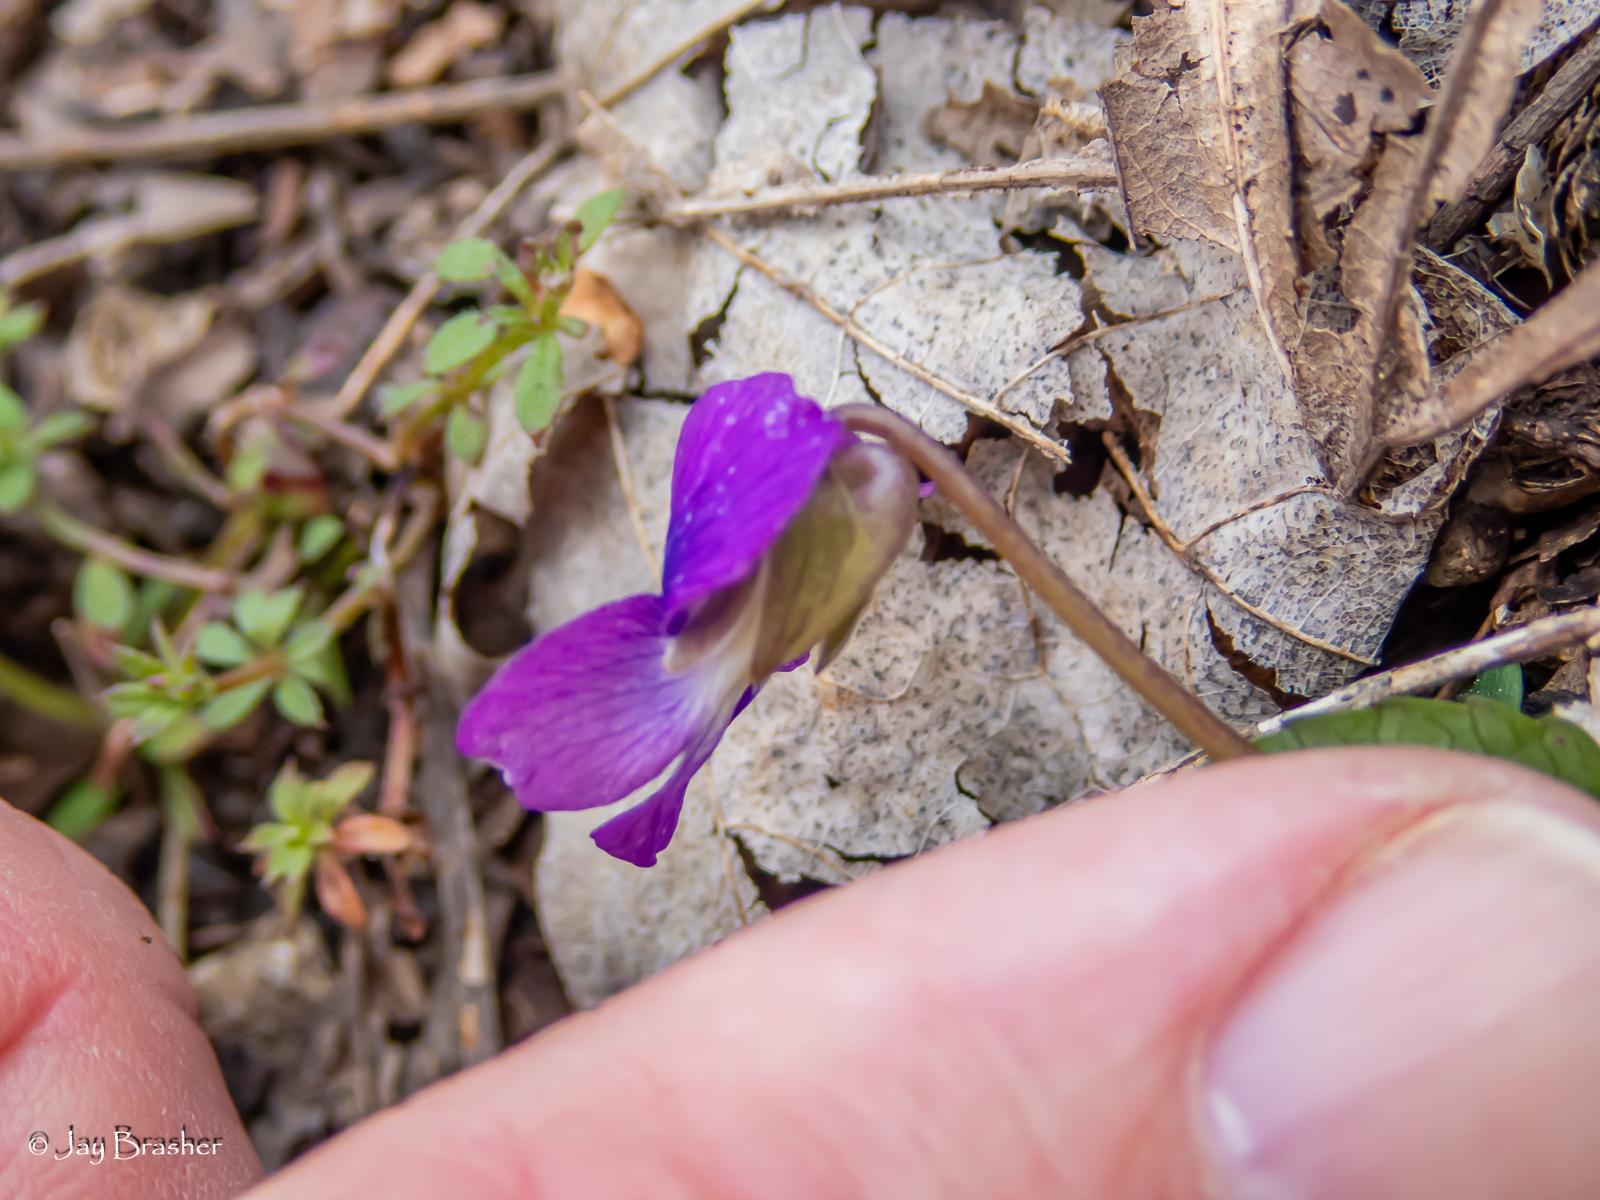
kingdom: Plantae
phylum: Tracheophyta
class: Magnoliopsida
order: Malpighiales
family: Violaceae
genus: Viola
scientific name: Viola sororia
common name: Dooryard violet
